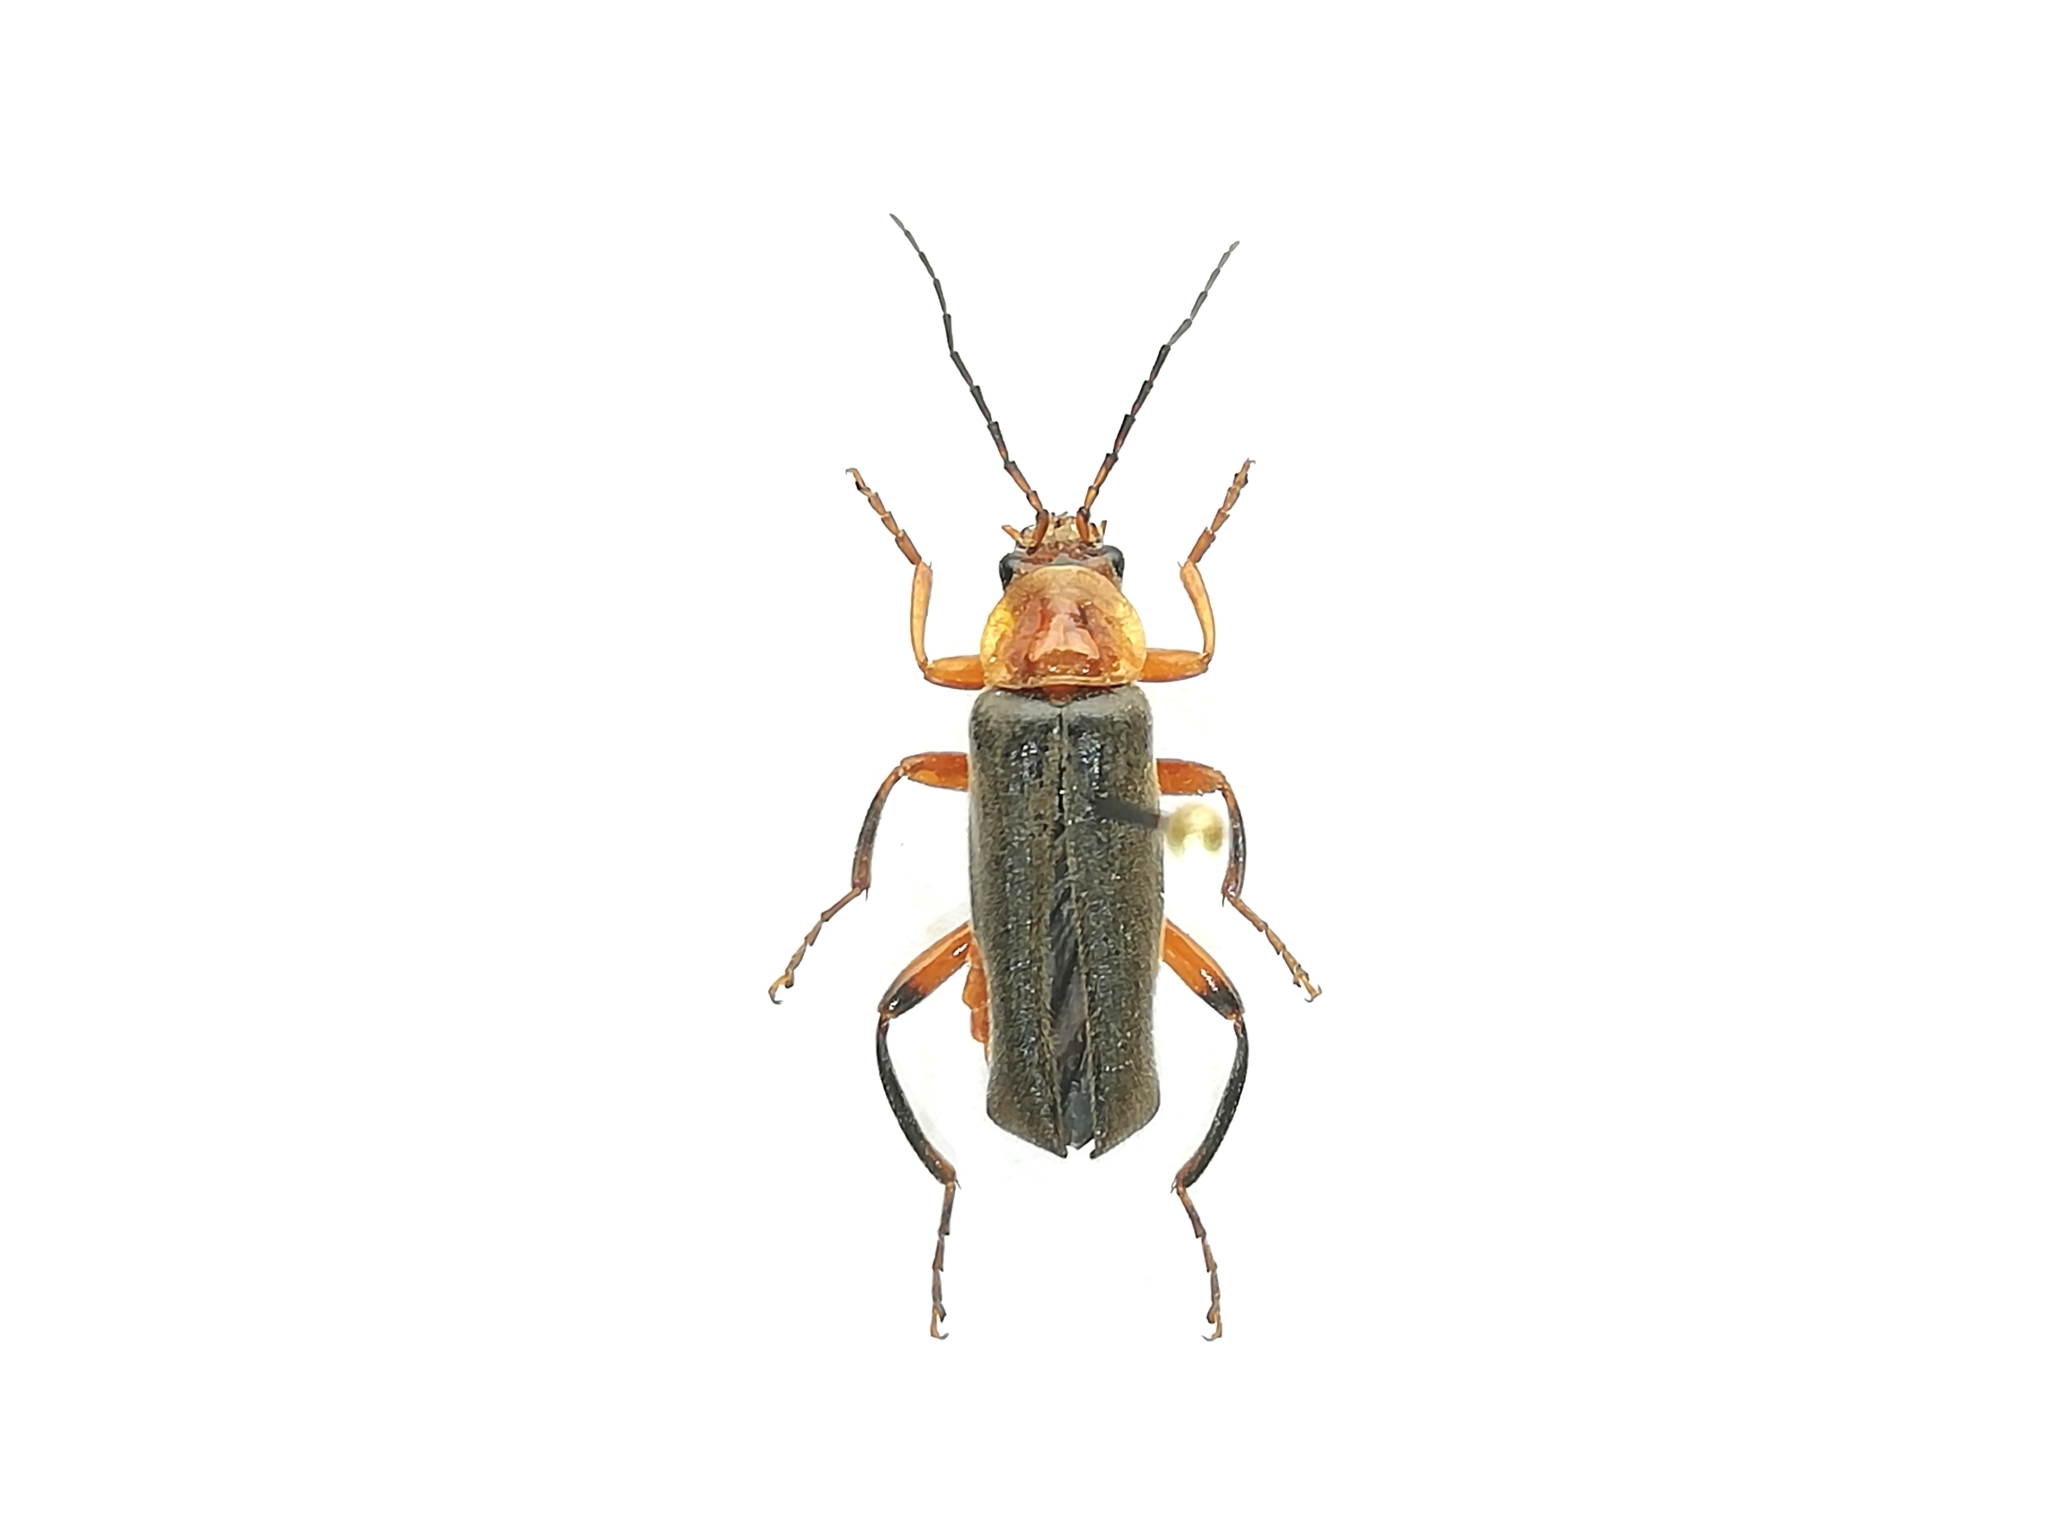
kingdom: Animalia
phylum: Arthropoda
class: Insecta
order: Coleoptera
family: Cantharidae
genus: Cantharis
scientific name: Cantharis livida
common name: Livid soldier beetle
